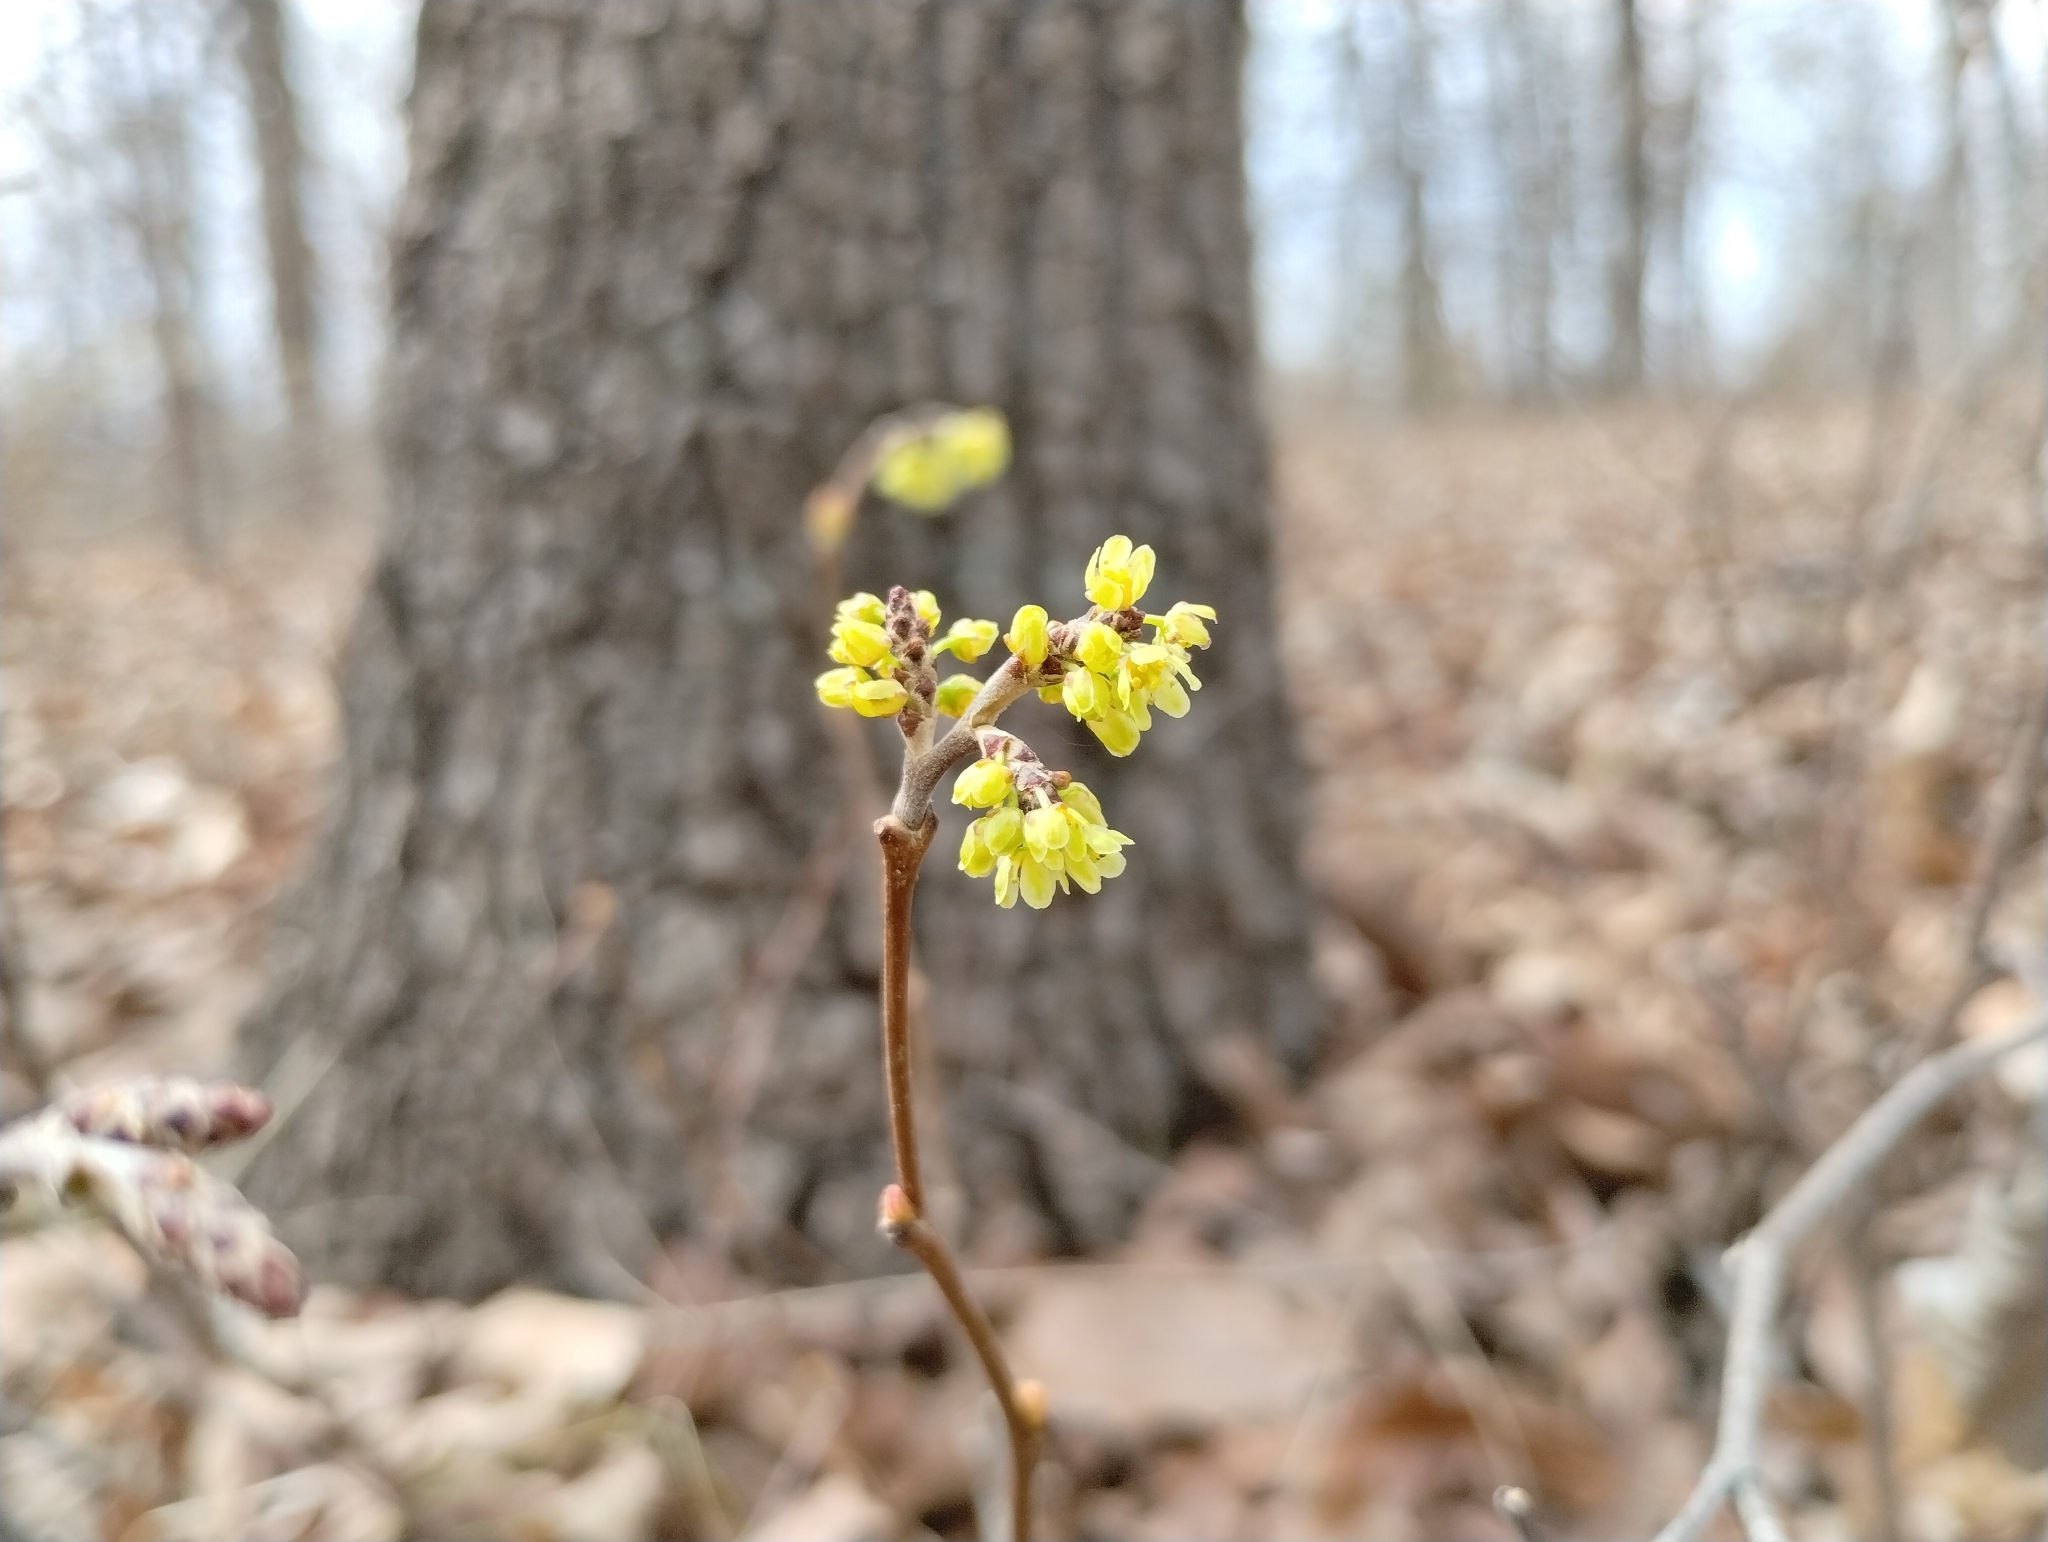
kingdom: Plantae
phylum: Tracheophyta
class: Magnoliopsida
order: Sapindales
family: Anacardiaceae
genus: Rhus
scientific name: Rhus aromatica
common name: Aromatic sumac
